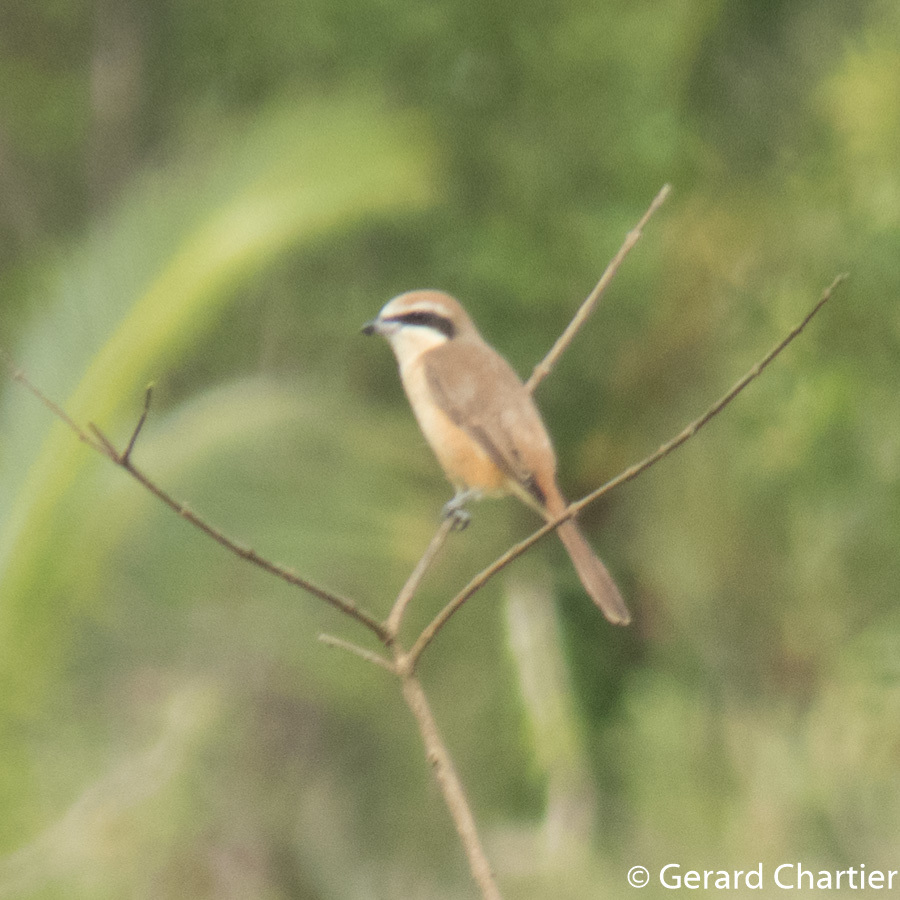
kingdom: Animalia
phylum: Chordata
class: Aves
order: Passeriformes
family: Laniidae
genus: Lanius
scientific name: Lanius cristatus
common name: Brown shrike
